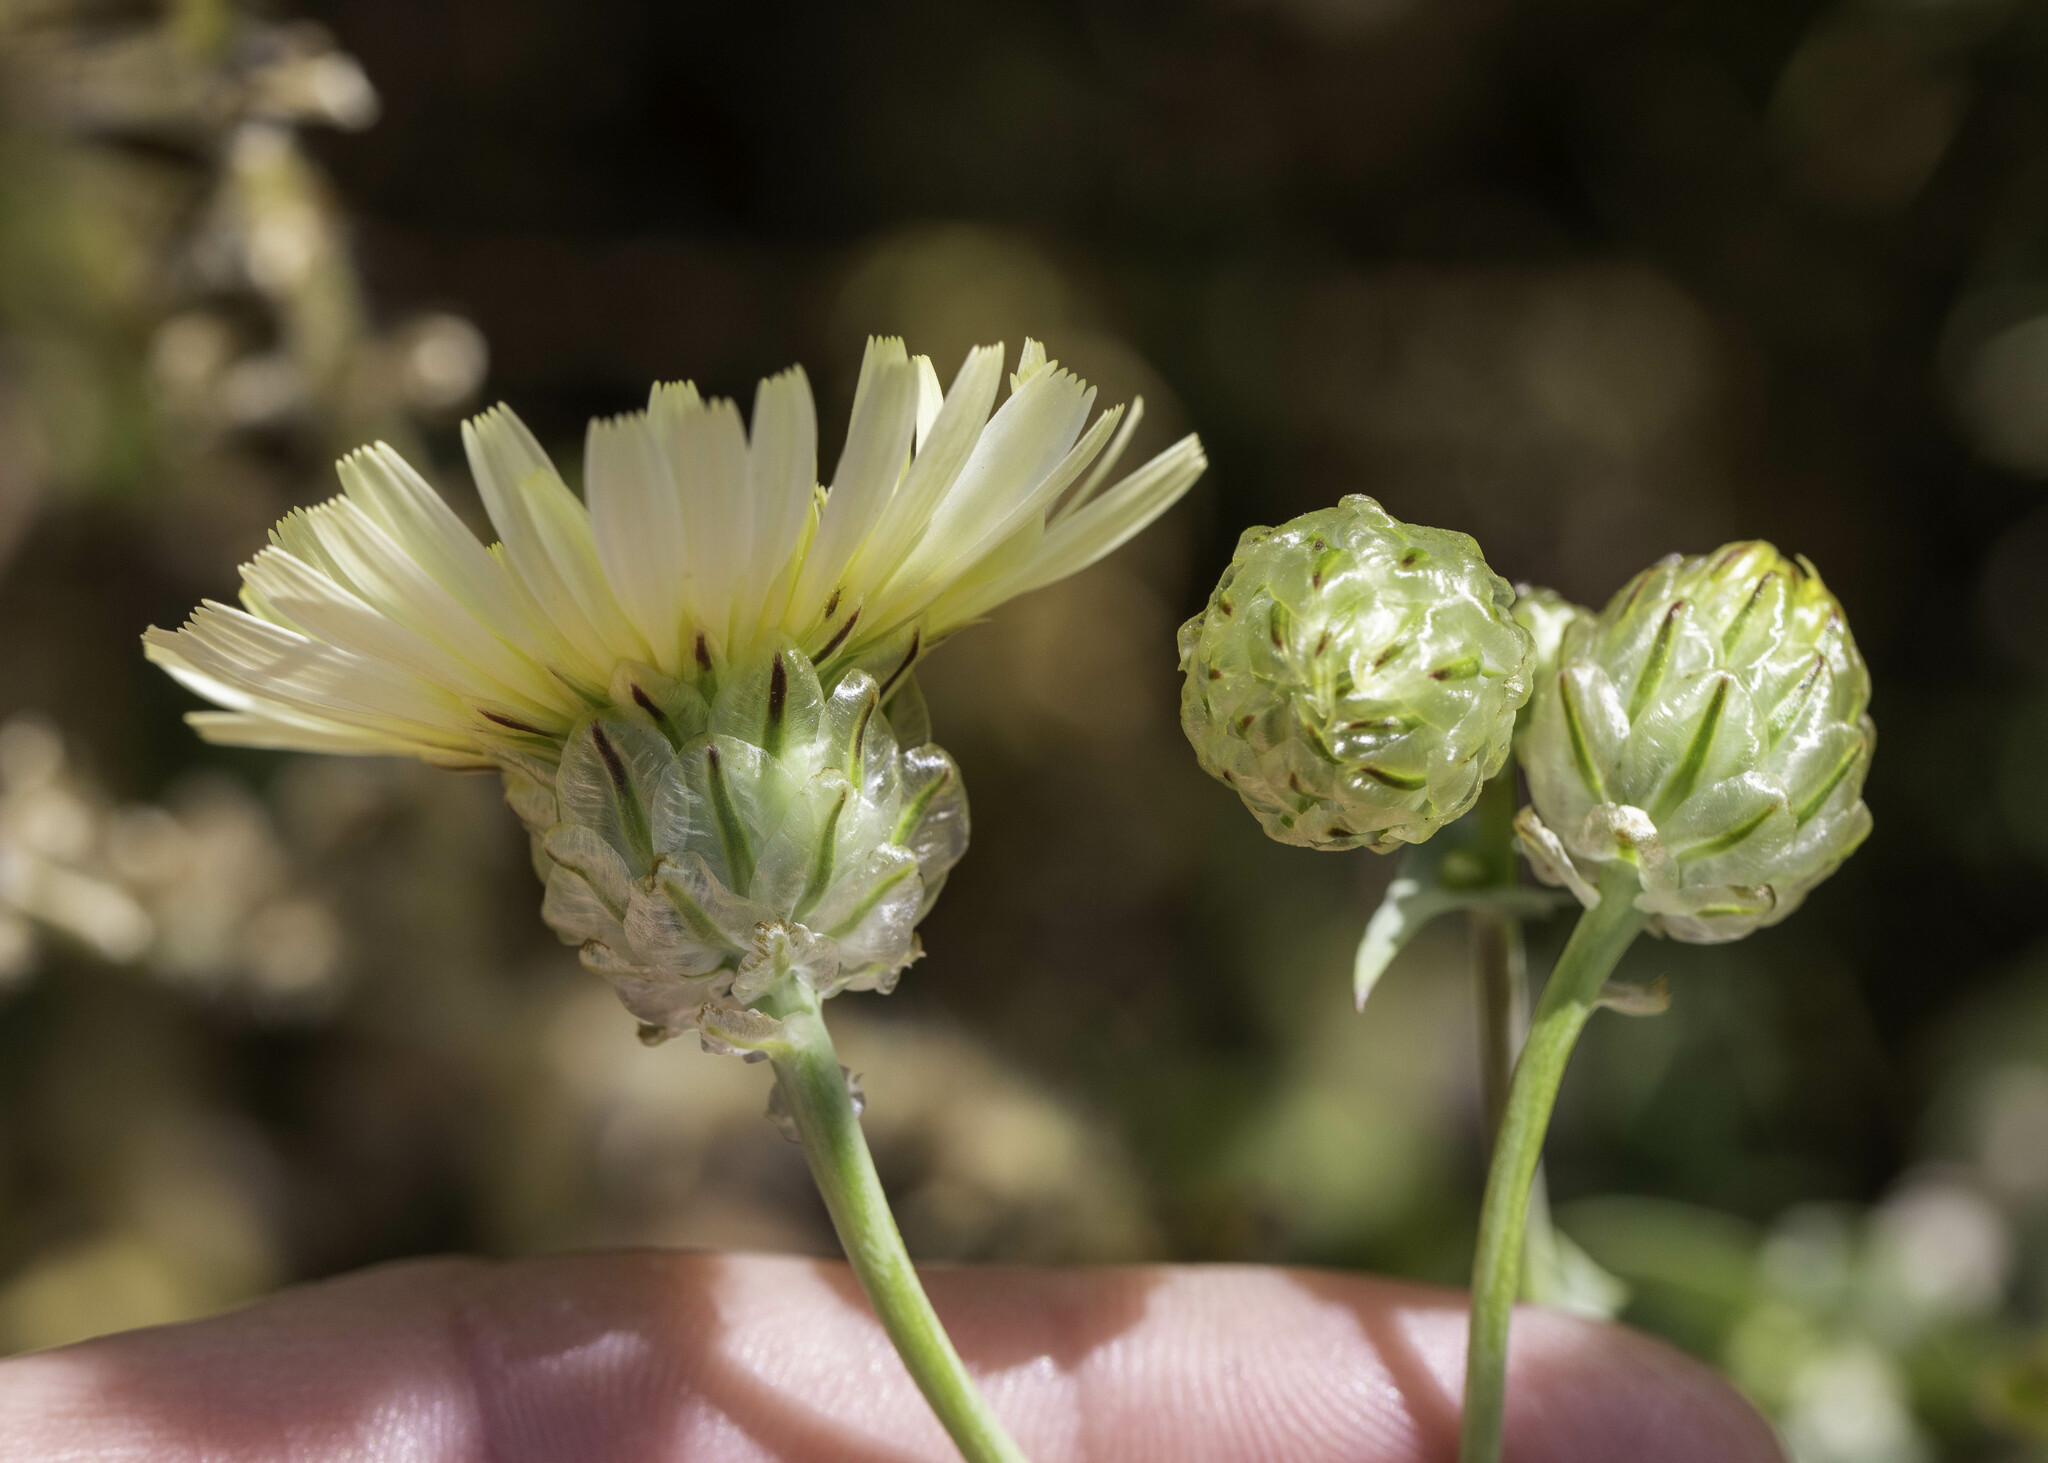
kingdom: Plantae
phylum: Tracheophyta
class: Magnoliopsida
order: Asterales
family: Asteraceae
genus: Malacothrix
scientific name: Malacothrix coulteri
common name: Snake's-head
